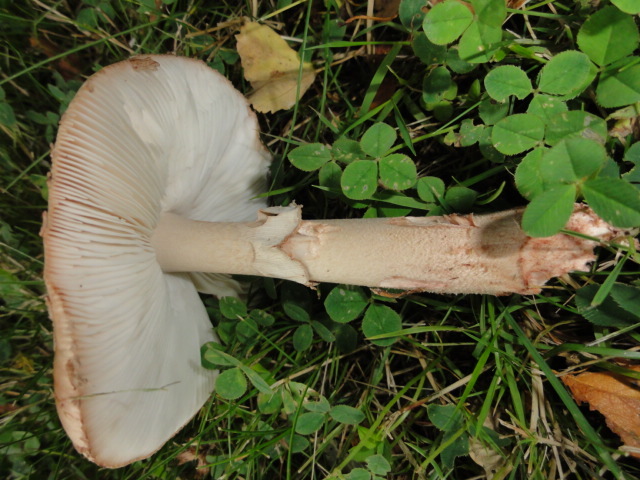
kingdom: Fungi
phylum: Basidiomycota
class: Agaricomycetes
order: Agaricales
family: Amanitaceae
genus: Amanita
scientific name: Amanita rubescens
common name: Blusher
